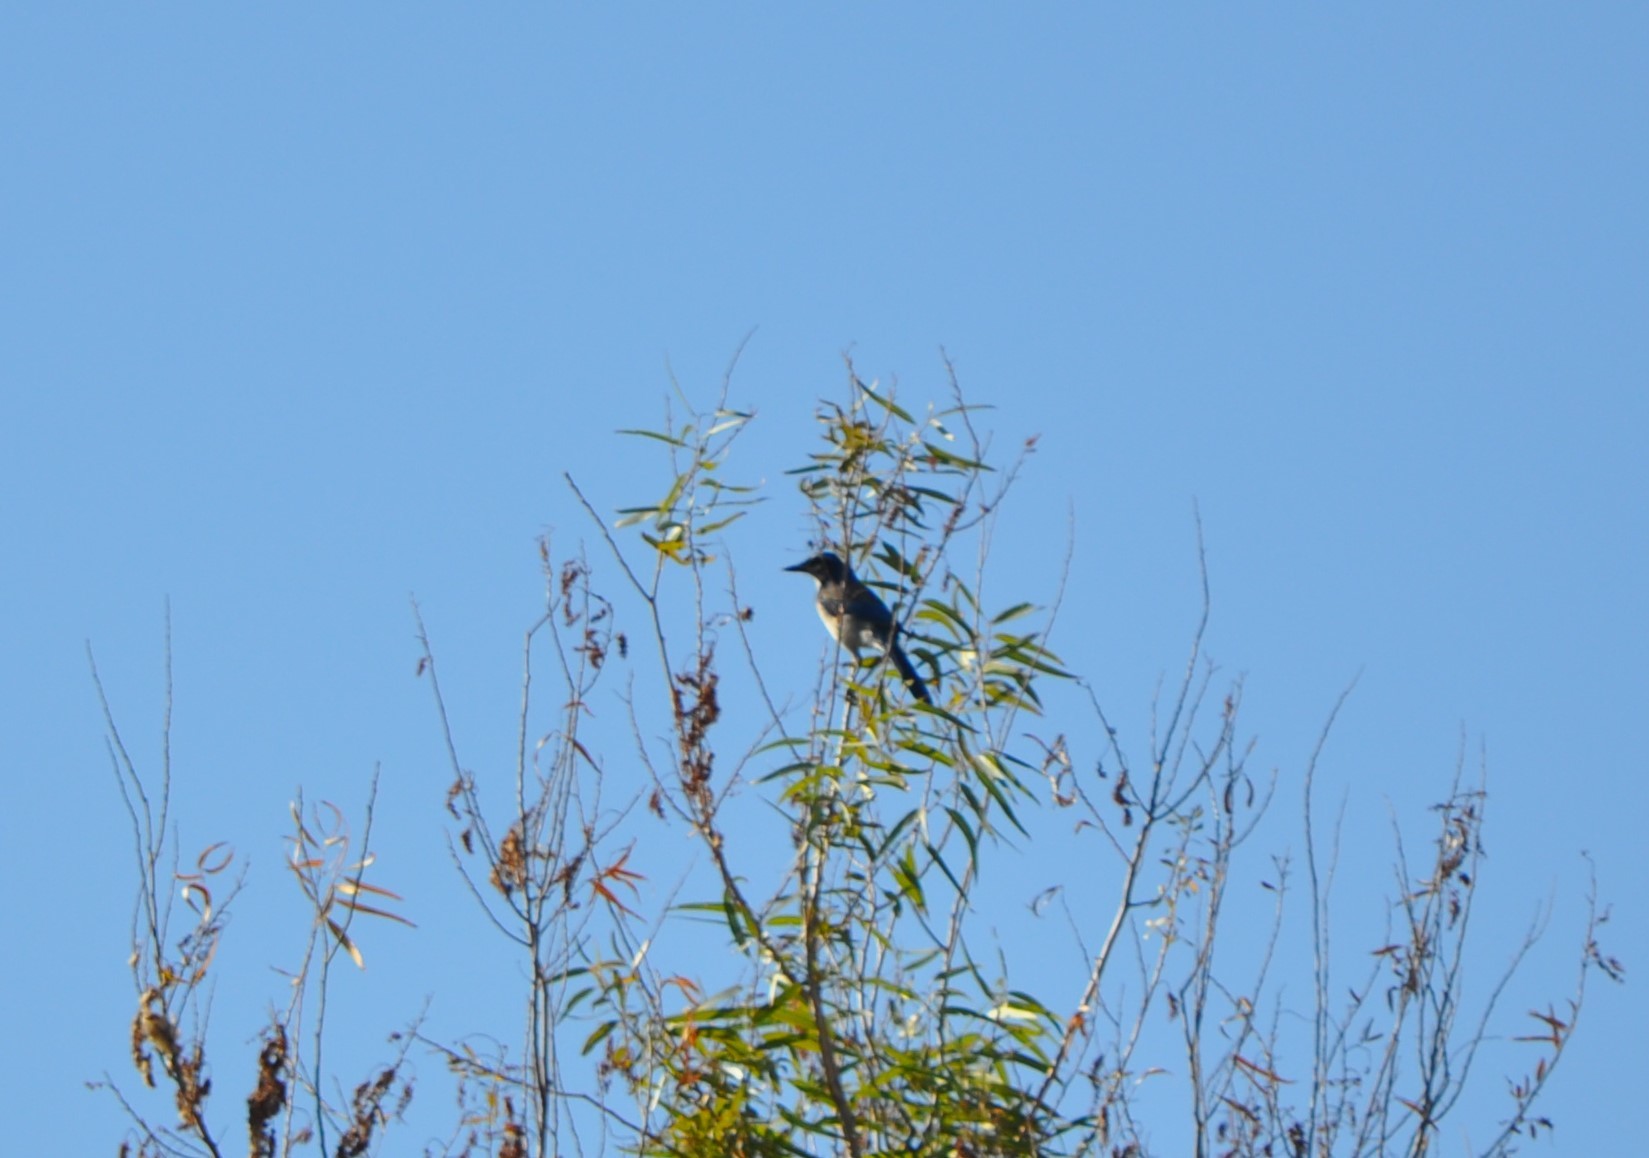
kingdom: Animalia
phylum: Chordata
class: Aves
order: Passeriformes
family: Corvidae
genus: Aphelocoma
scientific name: Aphelocoma californica
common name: California scrub-jay
